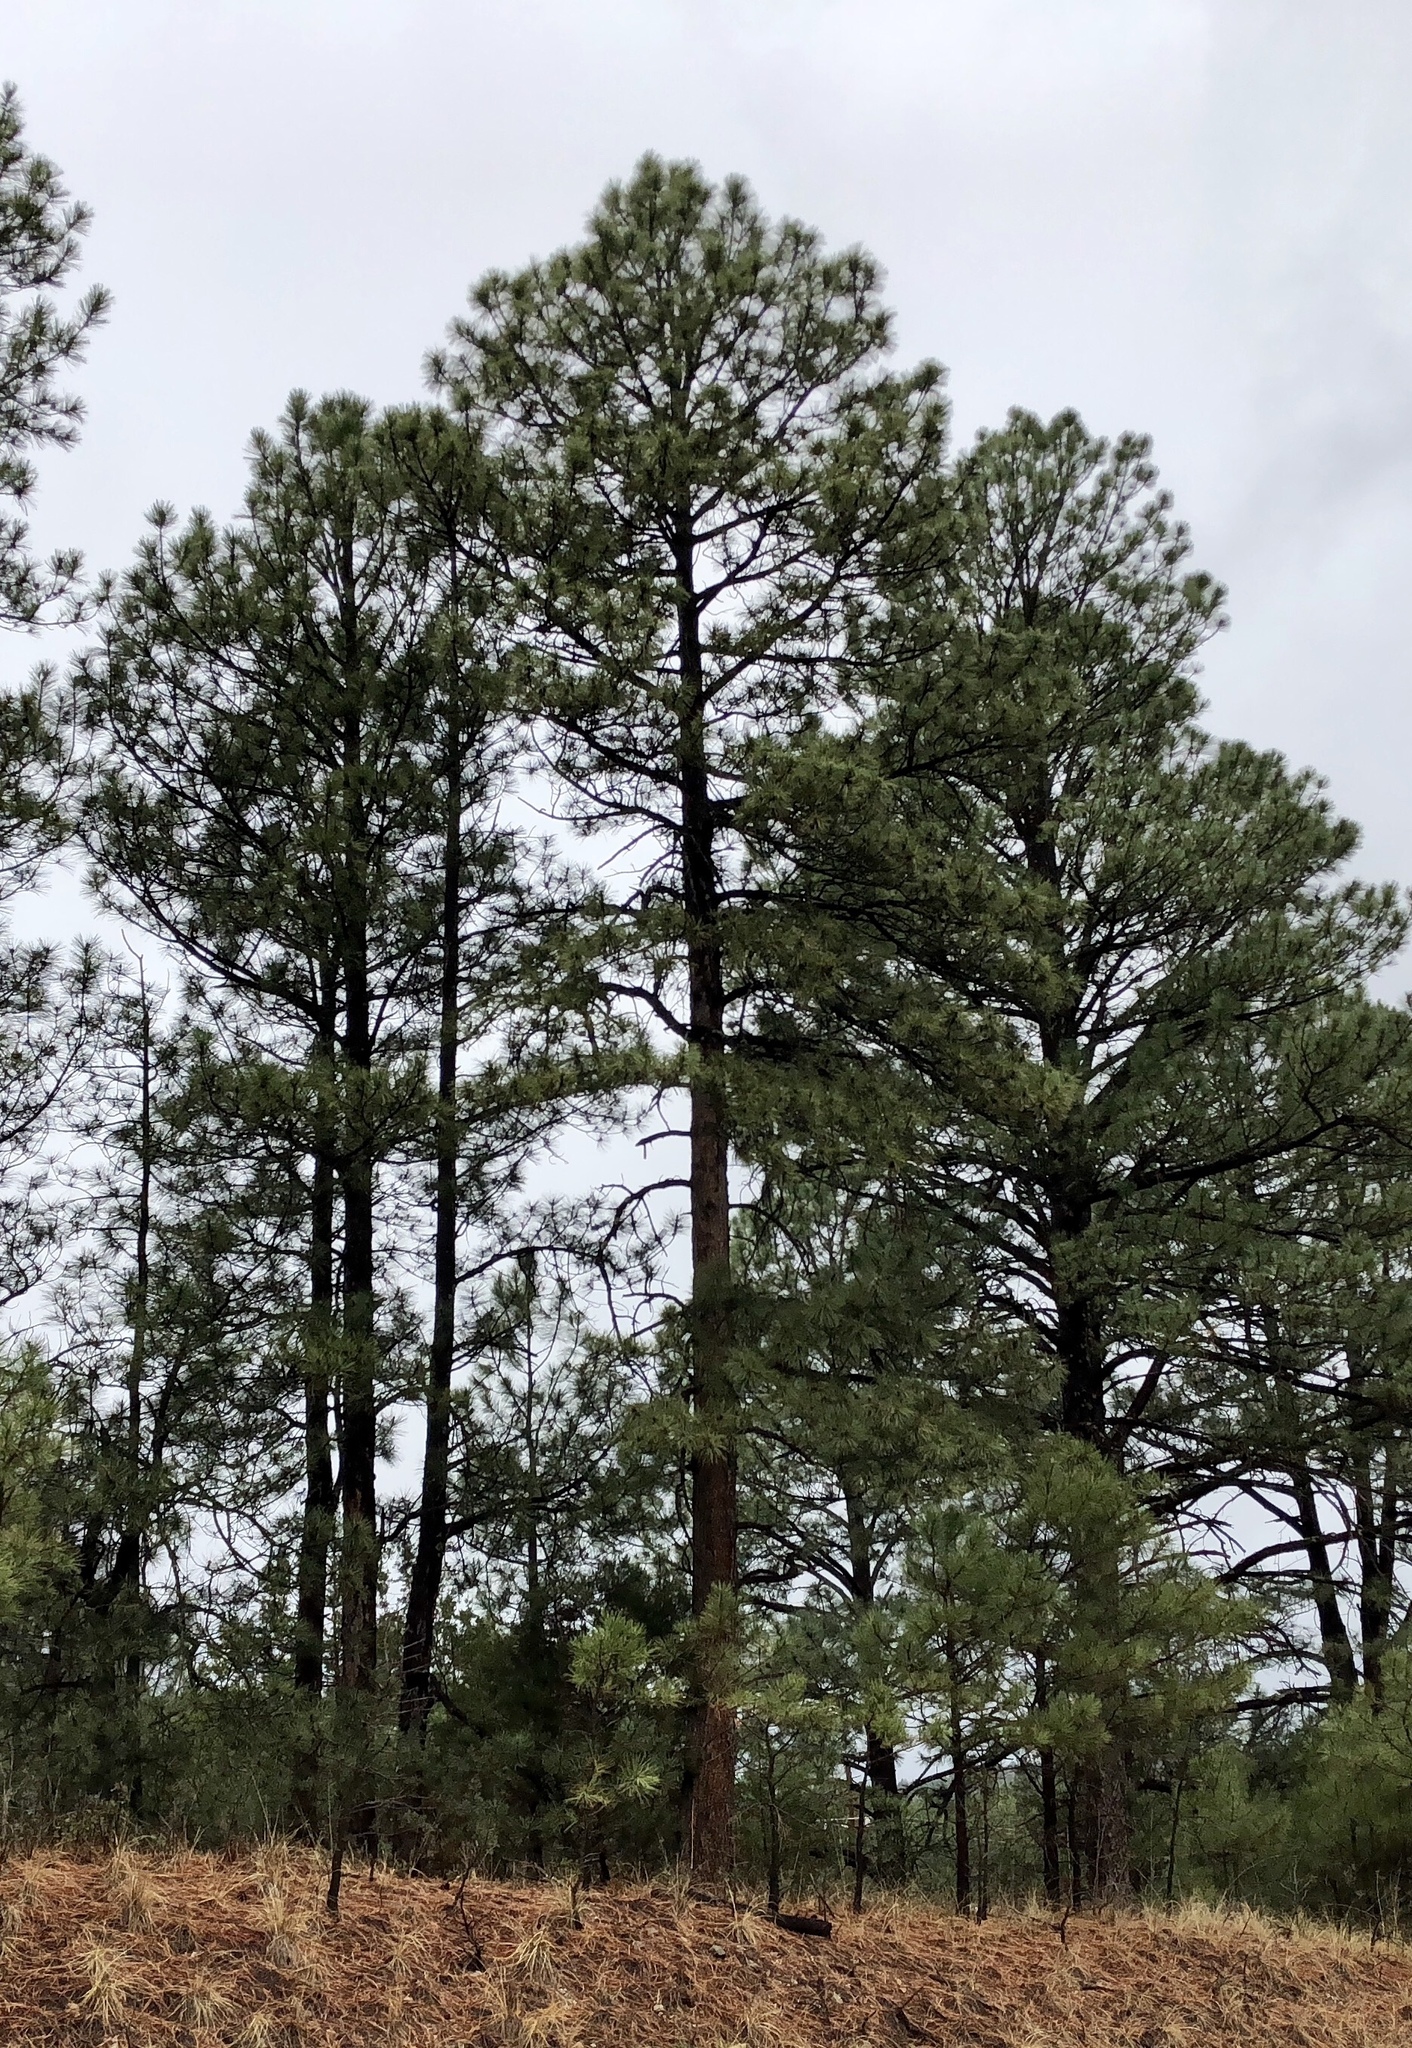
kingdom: Plantae
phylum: Tracheophyta
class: Pinopsida
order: Pinales
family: Pinaceae
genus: Pinus
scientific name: Pinus ponderosa
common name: Western yellow-pine
